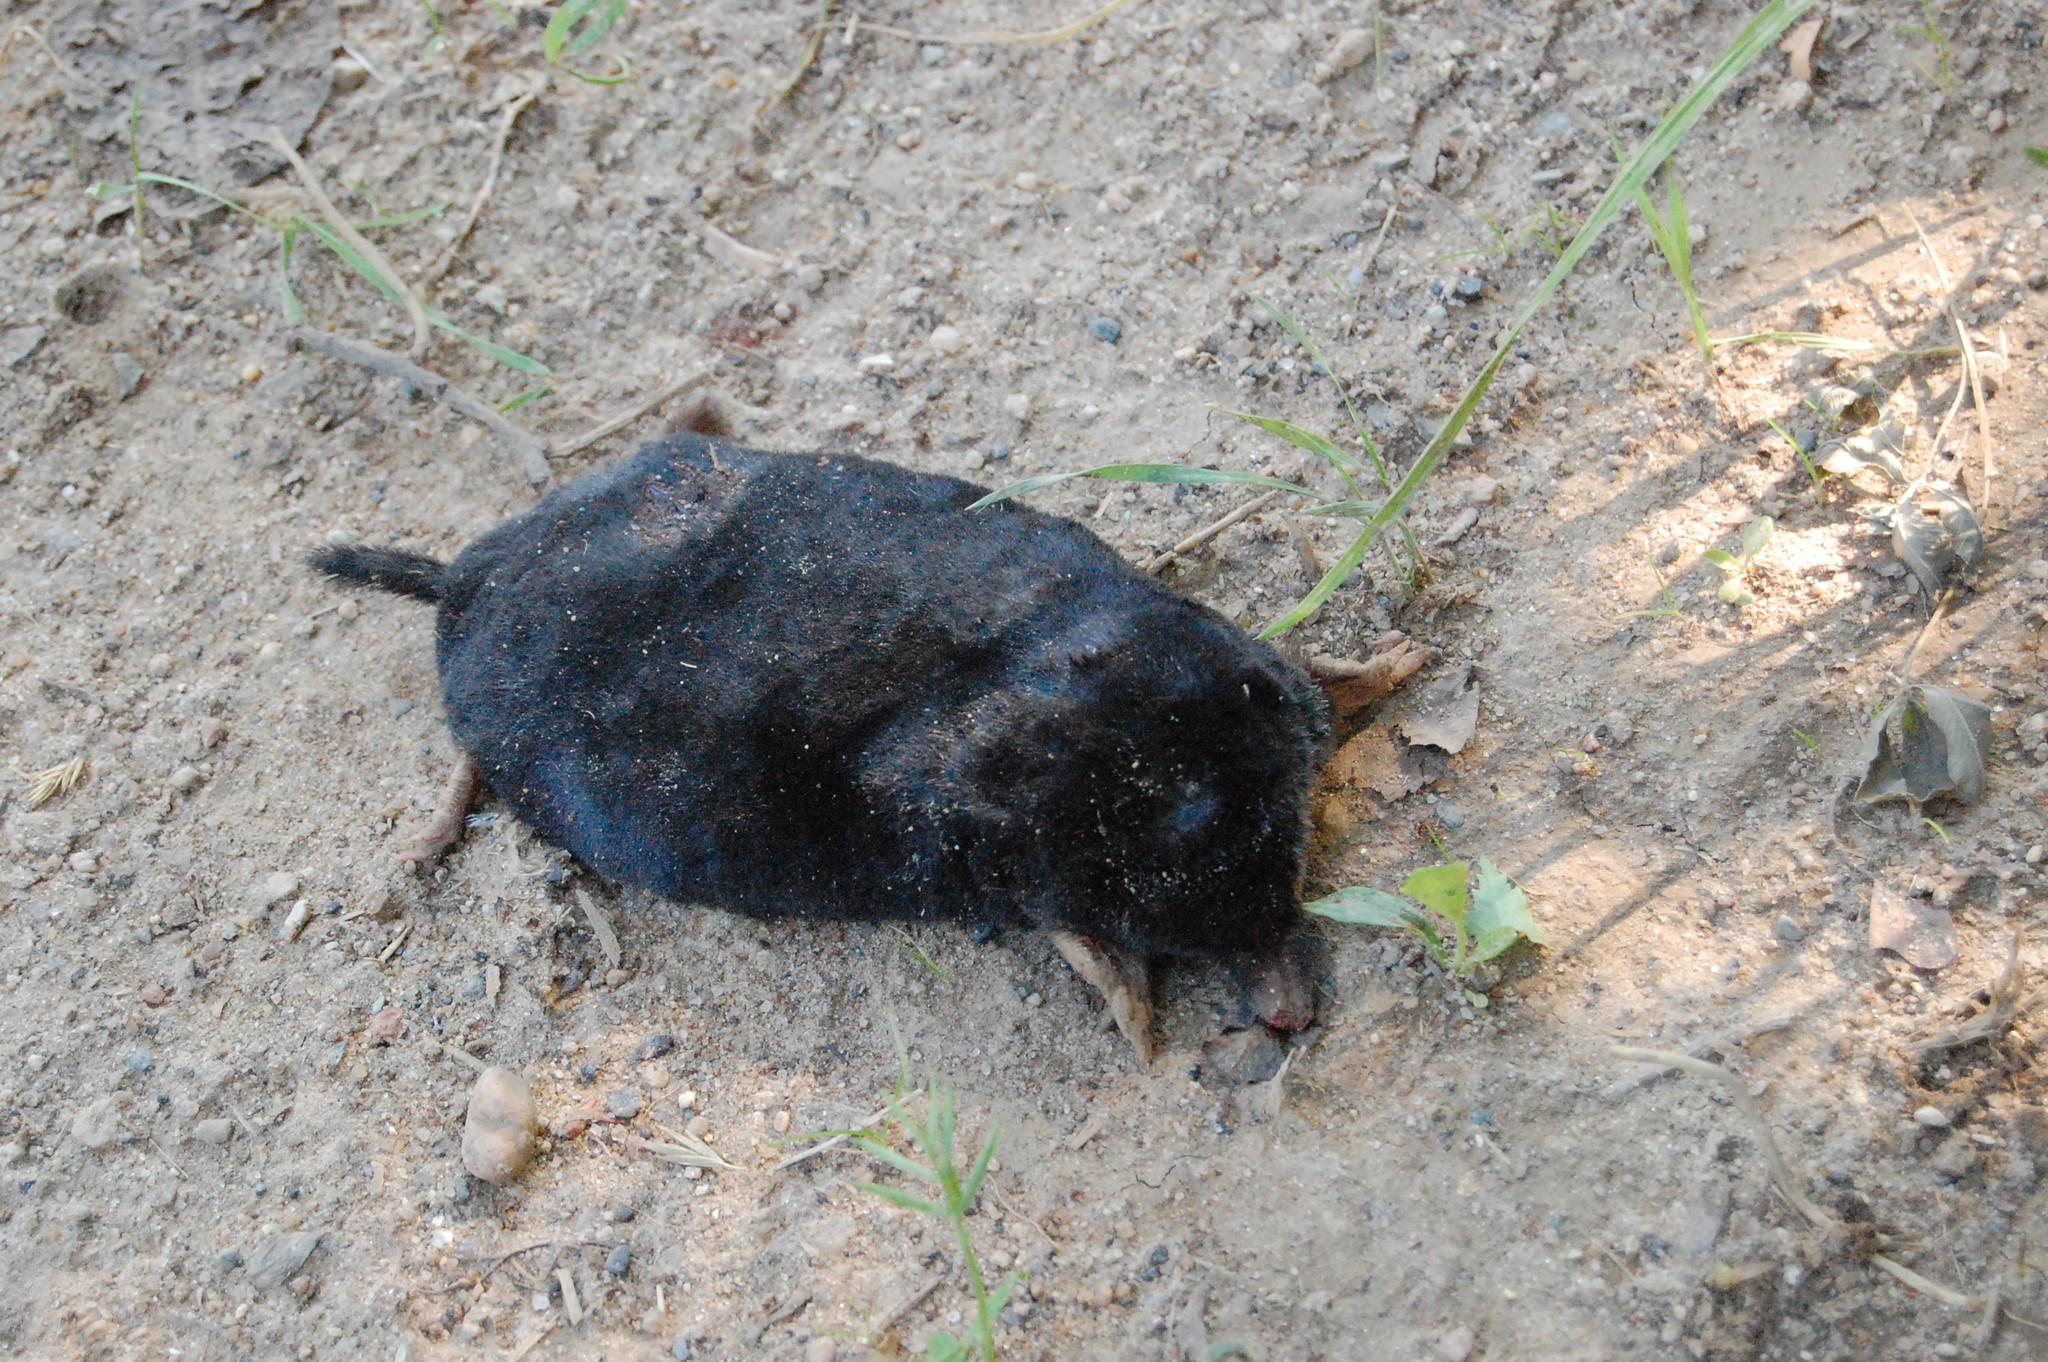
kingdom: Animalia
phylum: Chordata
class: Mammalia
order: Soricomorpha
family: Talpidae
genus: Talpa
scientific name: Talpa europaea
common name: European mole
